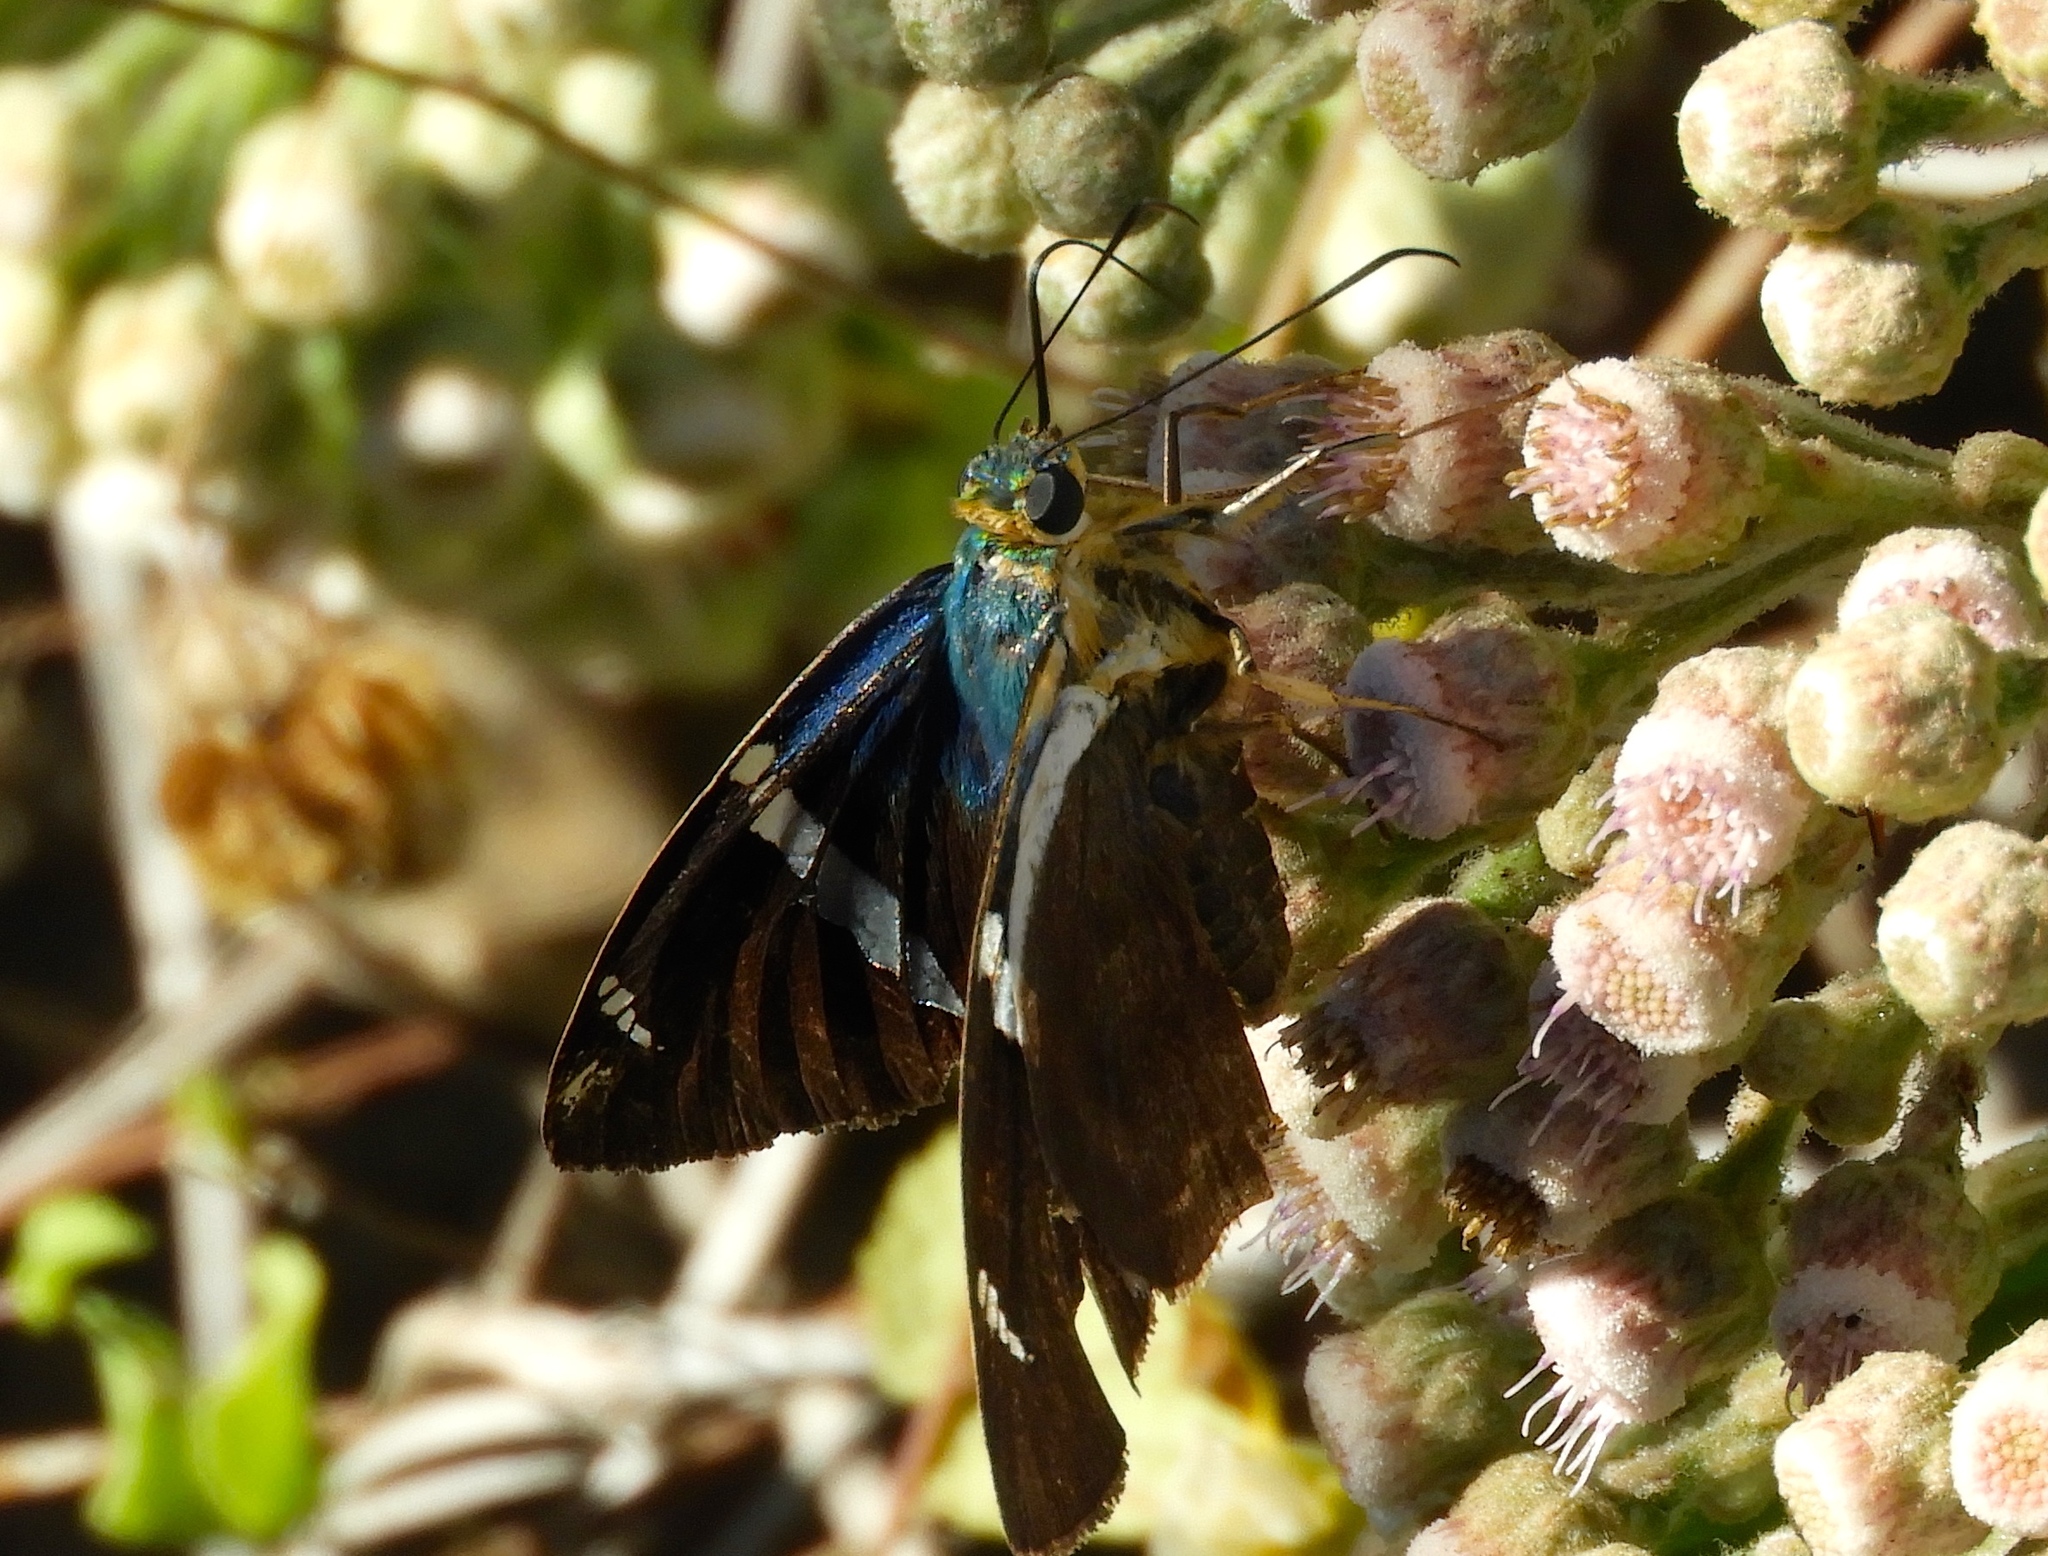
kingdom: Animalia
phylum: Arthropoda
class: Insecta
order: Lepidoptera
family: Hesperiidae
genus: Astraptes
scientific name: Astraptes fulgerator
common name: Two-barred flasher
